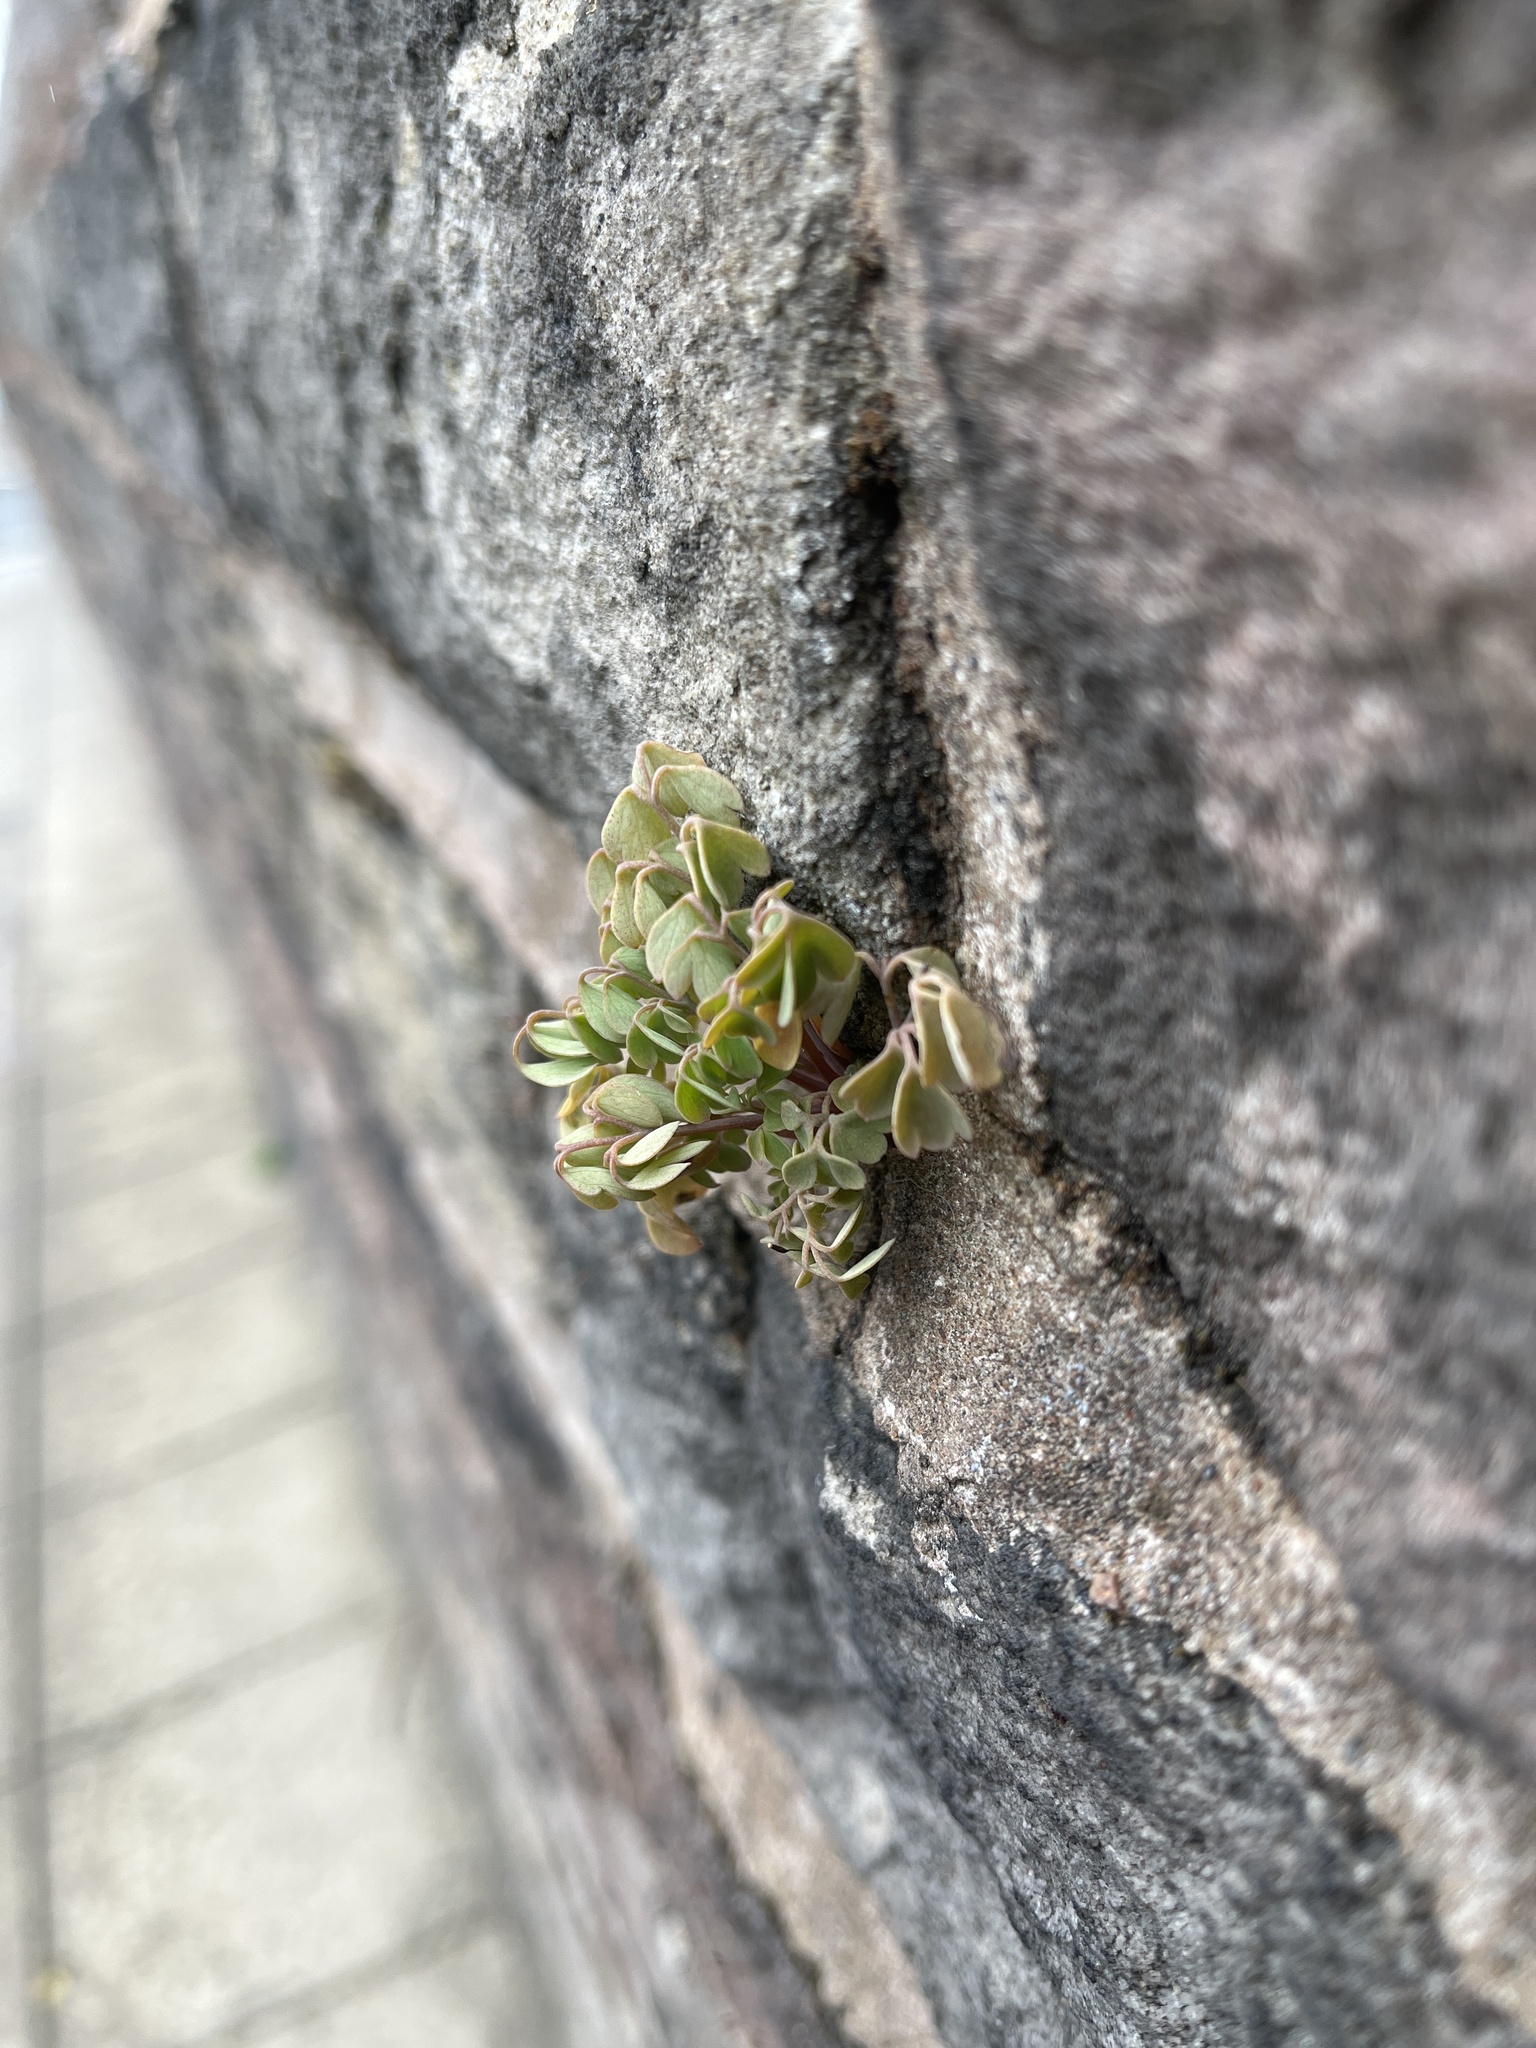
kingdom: Plantae
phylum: Tracheophyta
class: Magnoliopsida
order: Ranunculales
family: Papaveraceae
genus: Pseudofumaria
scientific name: Pseudofumaria lutea
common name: Yellow corydalis
